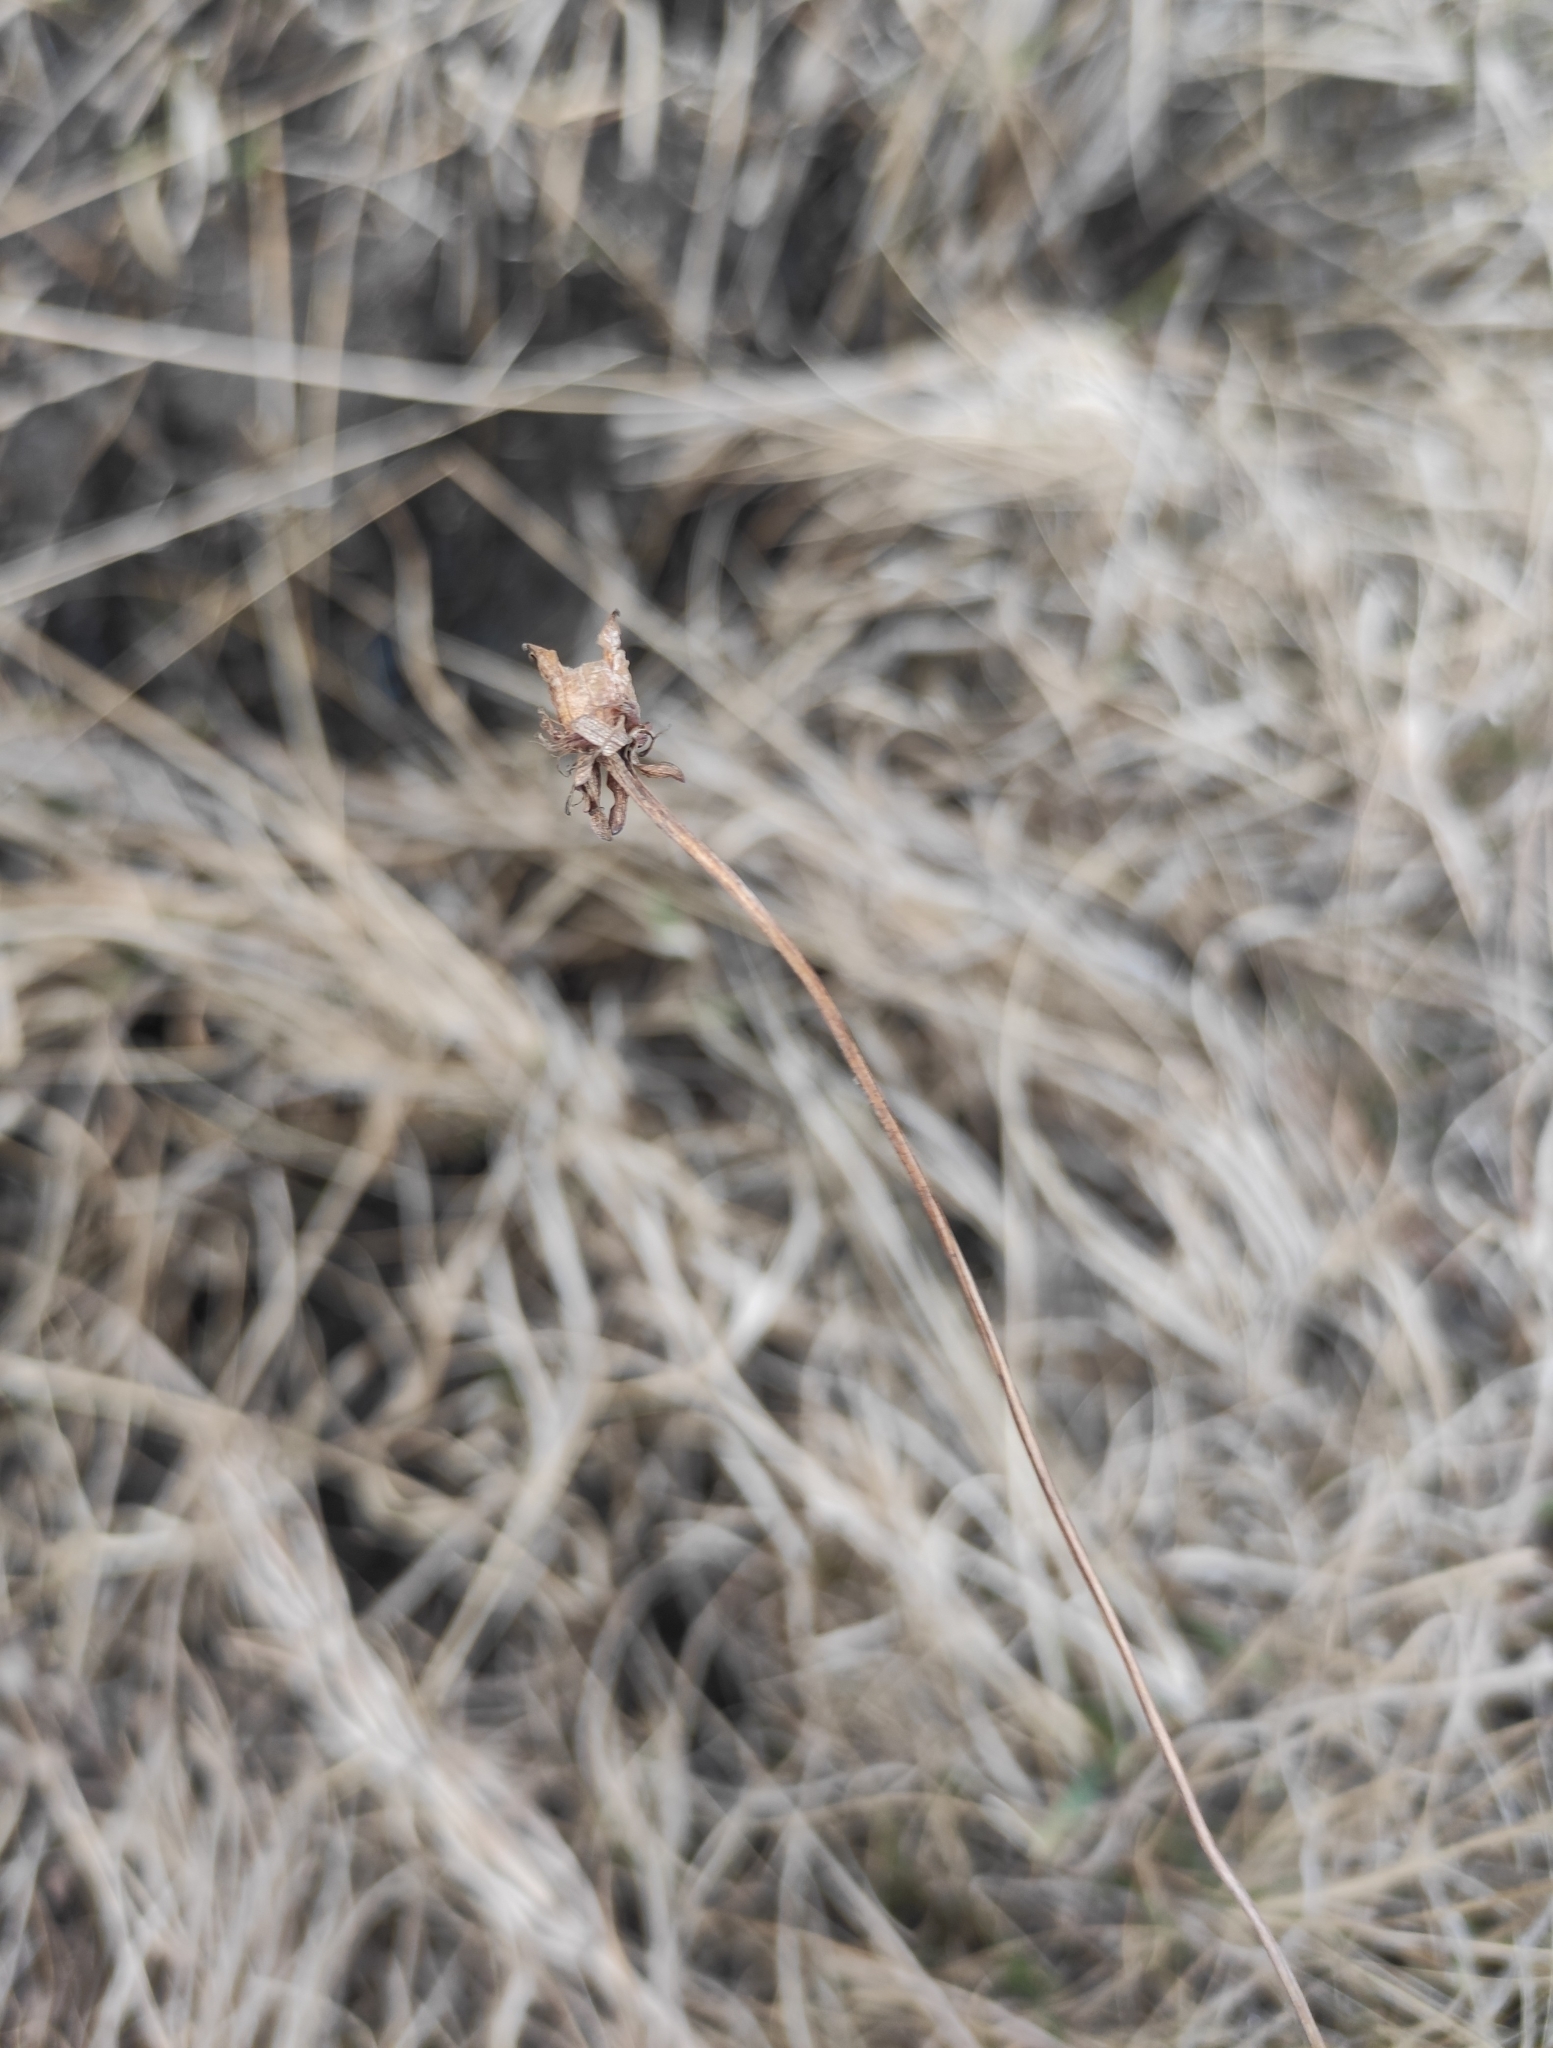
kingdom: Plantae
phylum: Tracheophyta
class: Magnoliopsida
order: Celastrales
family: Parnassiaceae
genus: Parnassia
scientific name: Parnassia palustris
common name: Grass-of-parnassus
